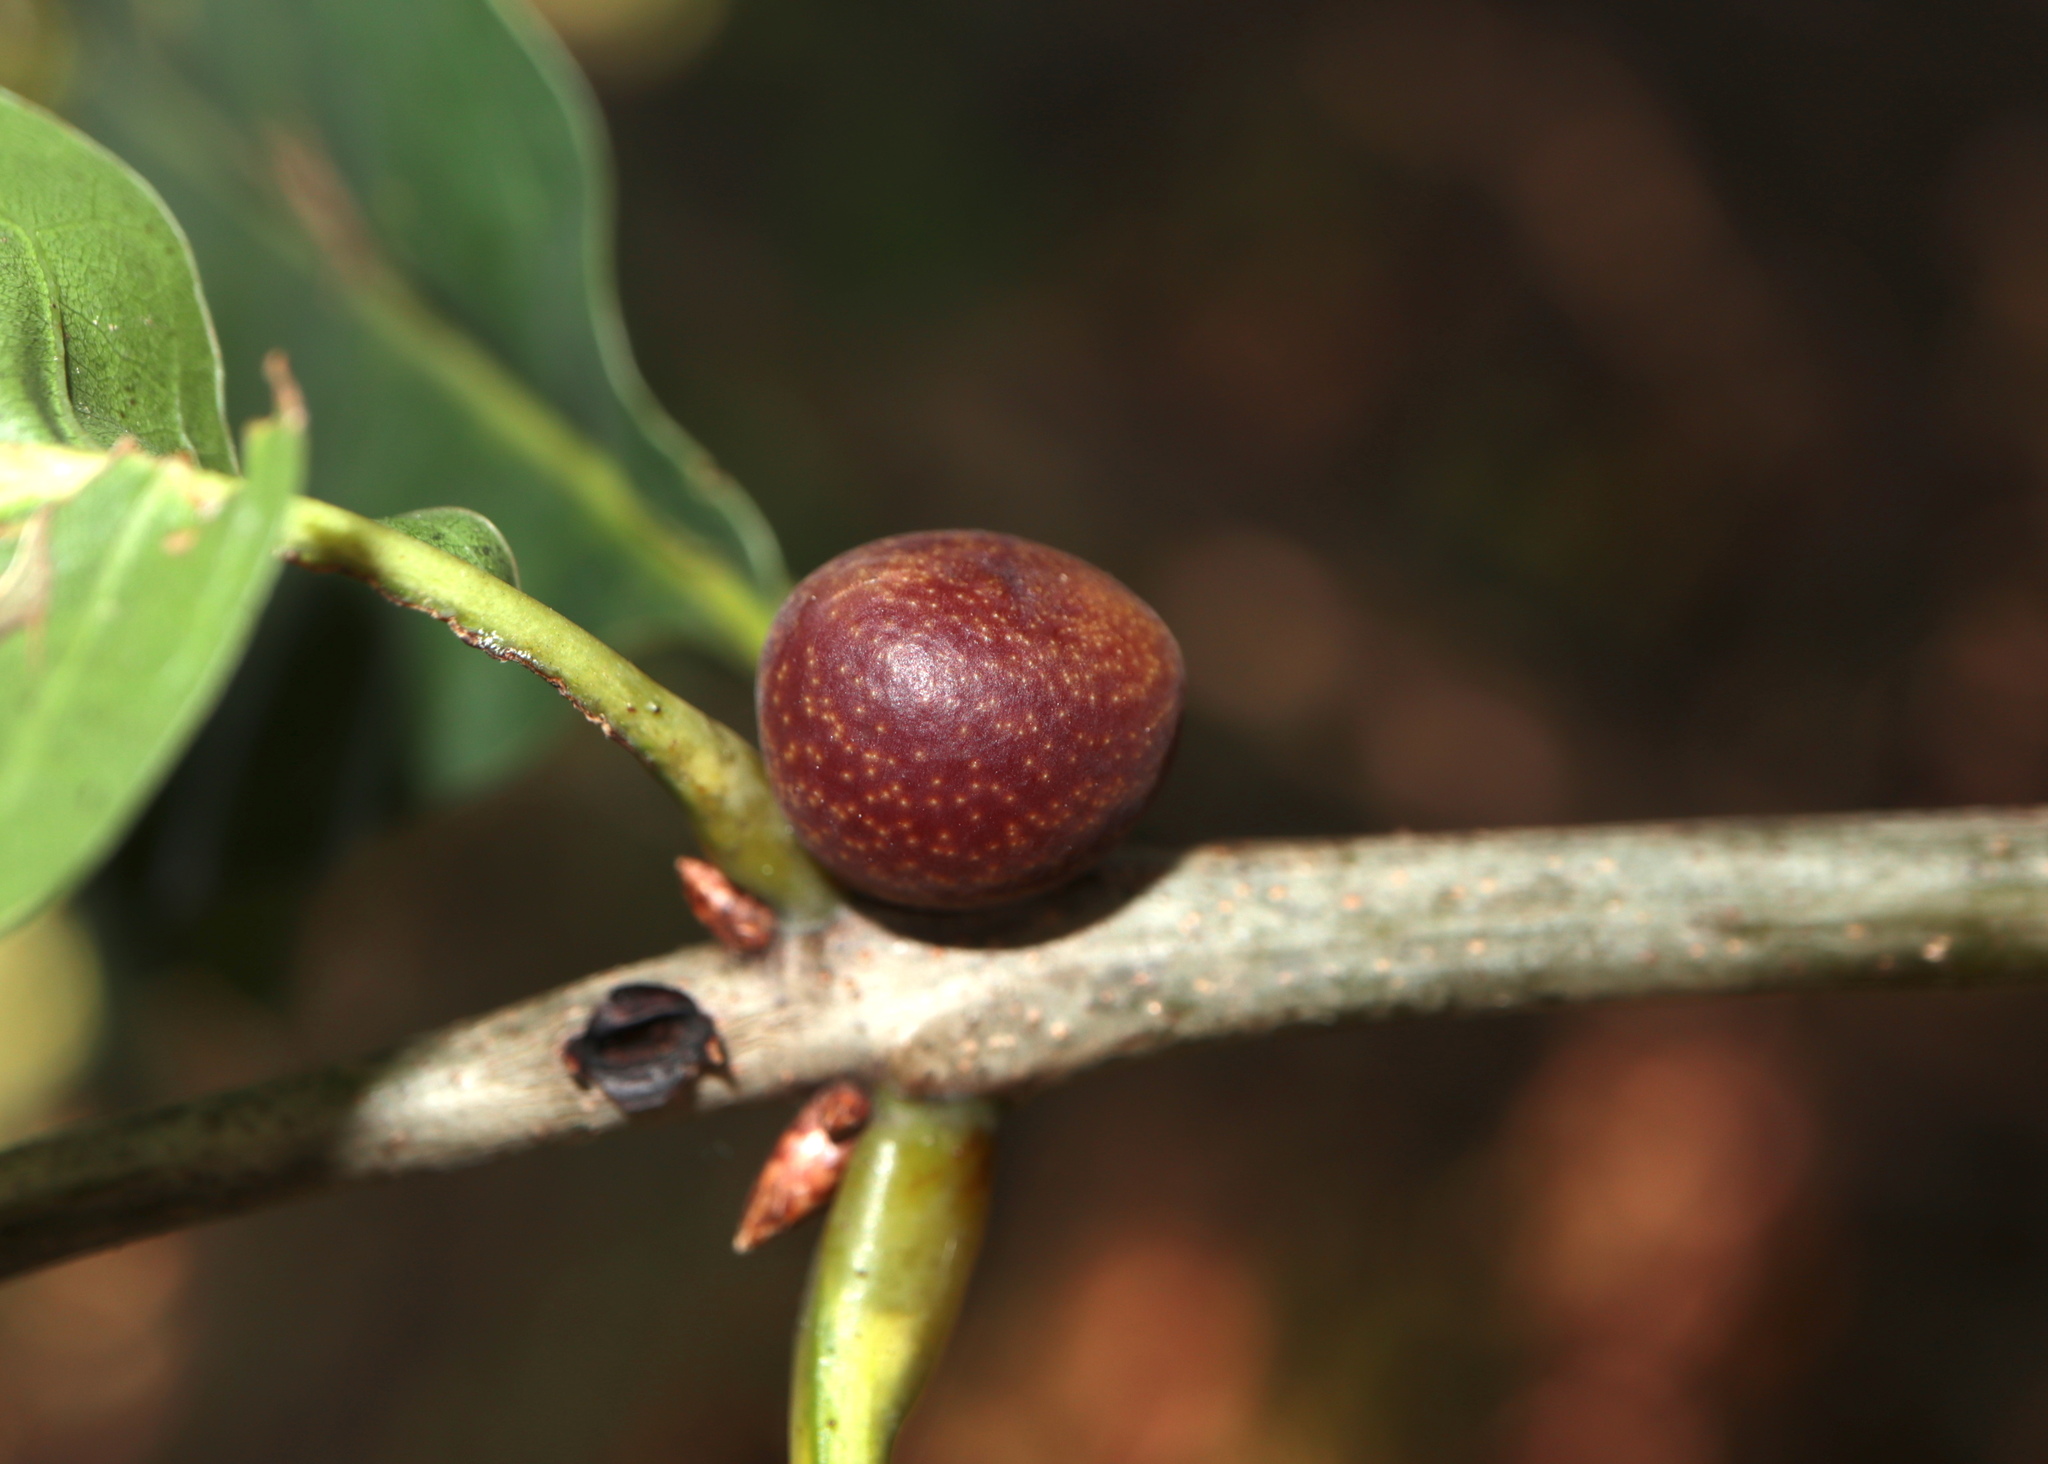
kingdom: Animalia
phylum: Arthropoda
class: Insecta
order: Hymenoptera
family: Cynipidae
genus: Kokkocynips
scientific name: Kokkocynips imbricariae
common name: Banded bullet gall wasp
